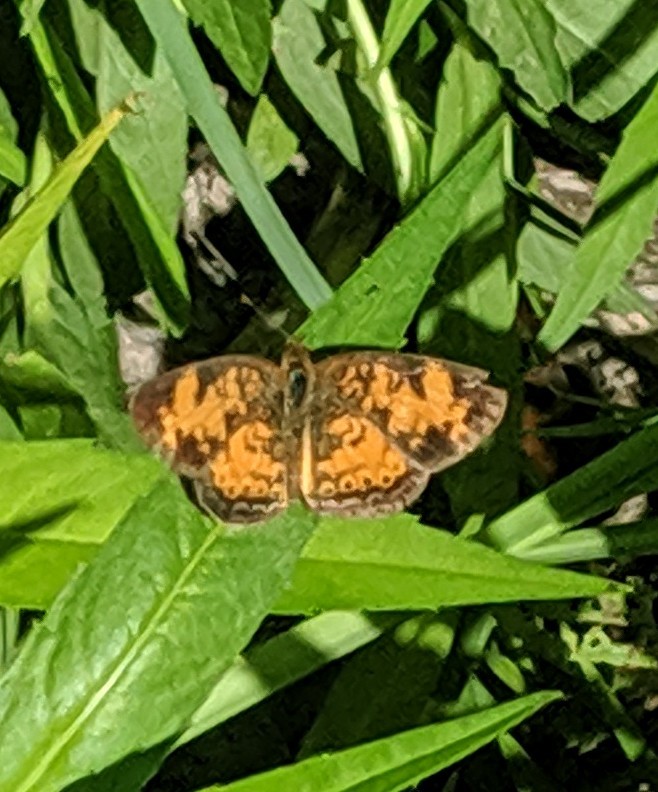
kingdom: Animalia
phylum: Arthropoda
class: Insecta
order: Lepidoptera
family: Nymphalidae
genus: Phyciodes
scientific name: Phyciodes tharos
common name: Pearl crescent
